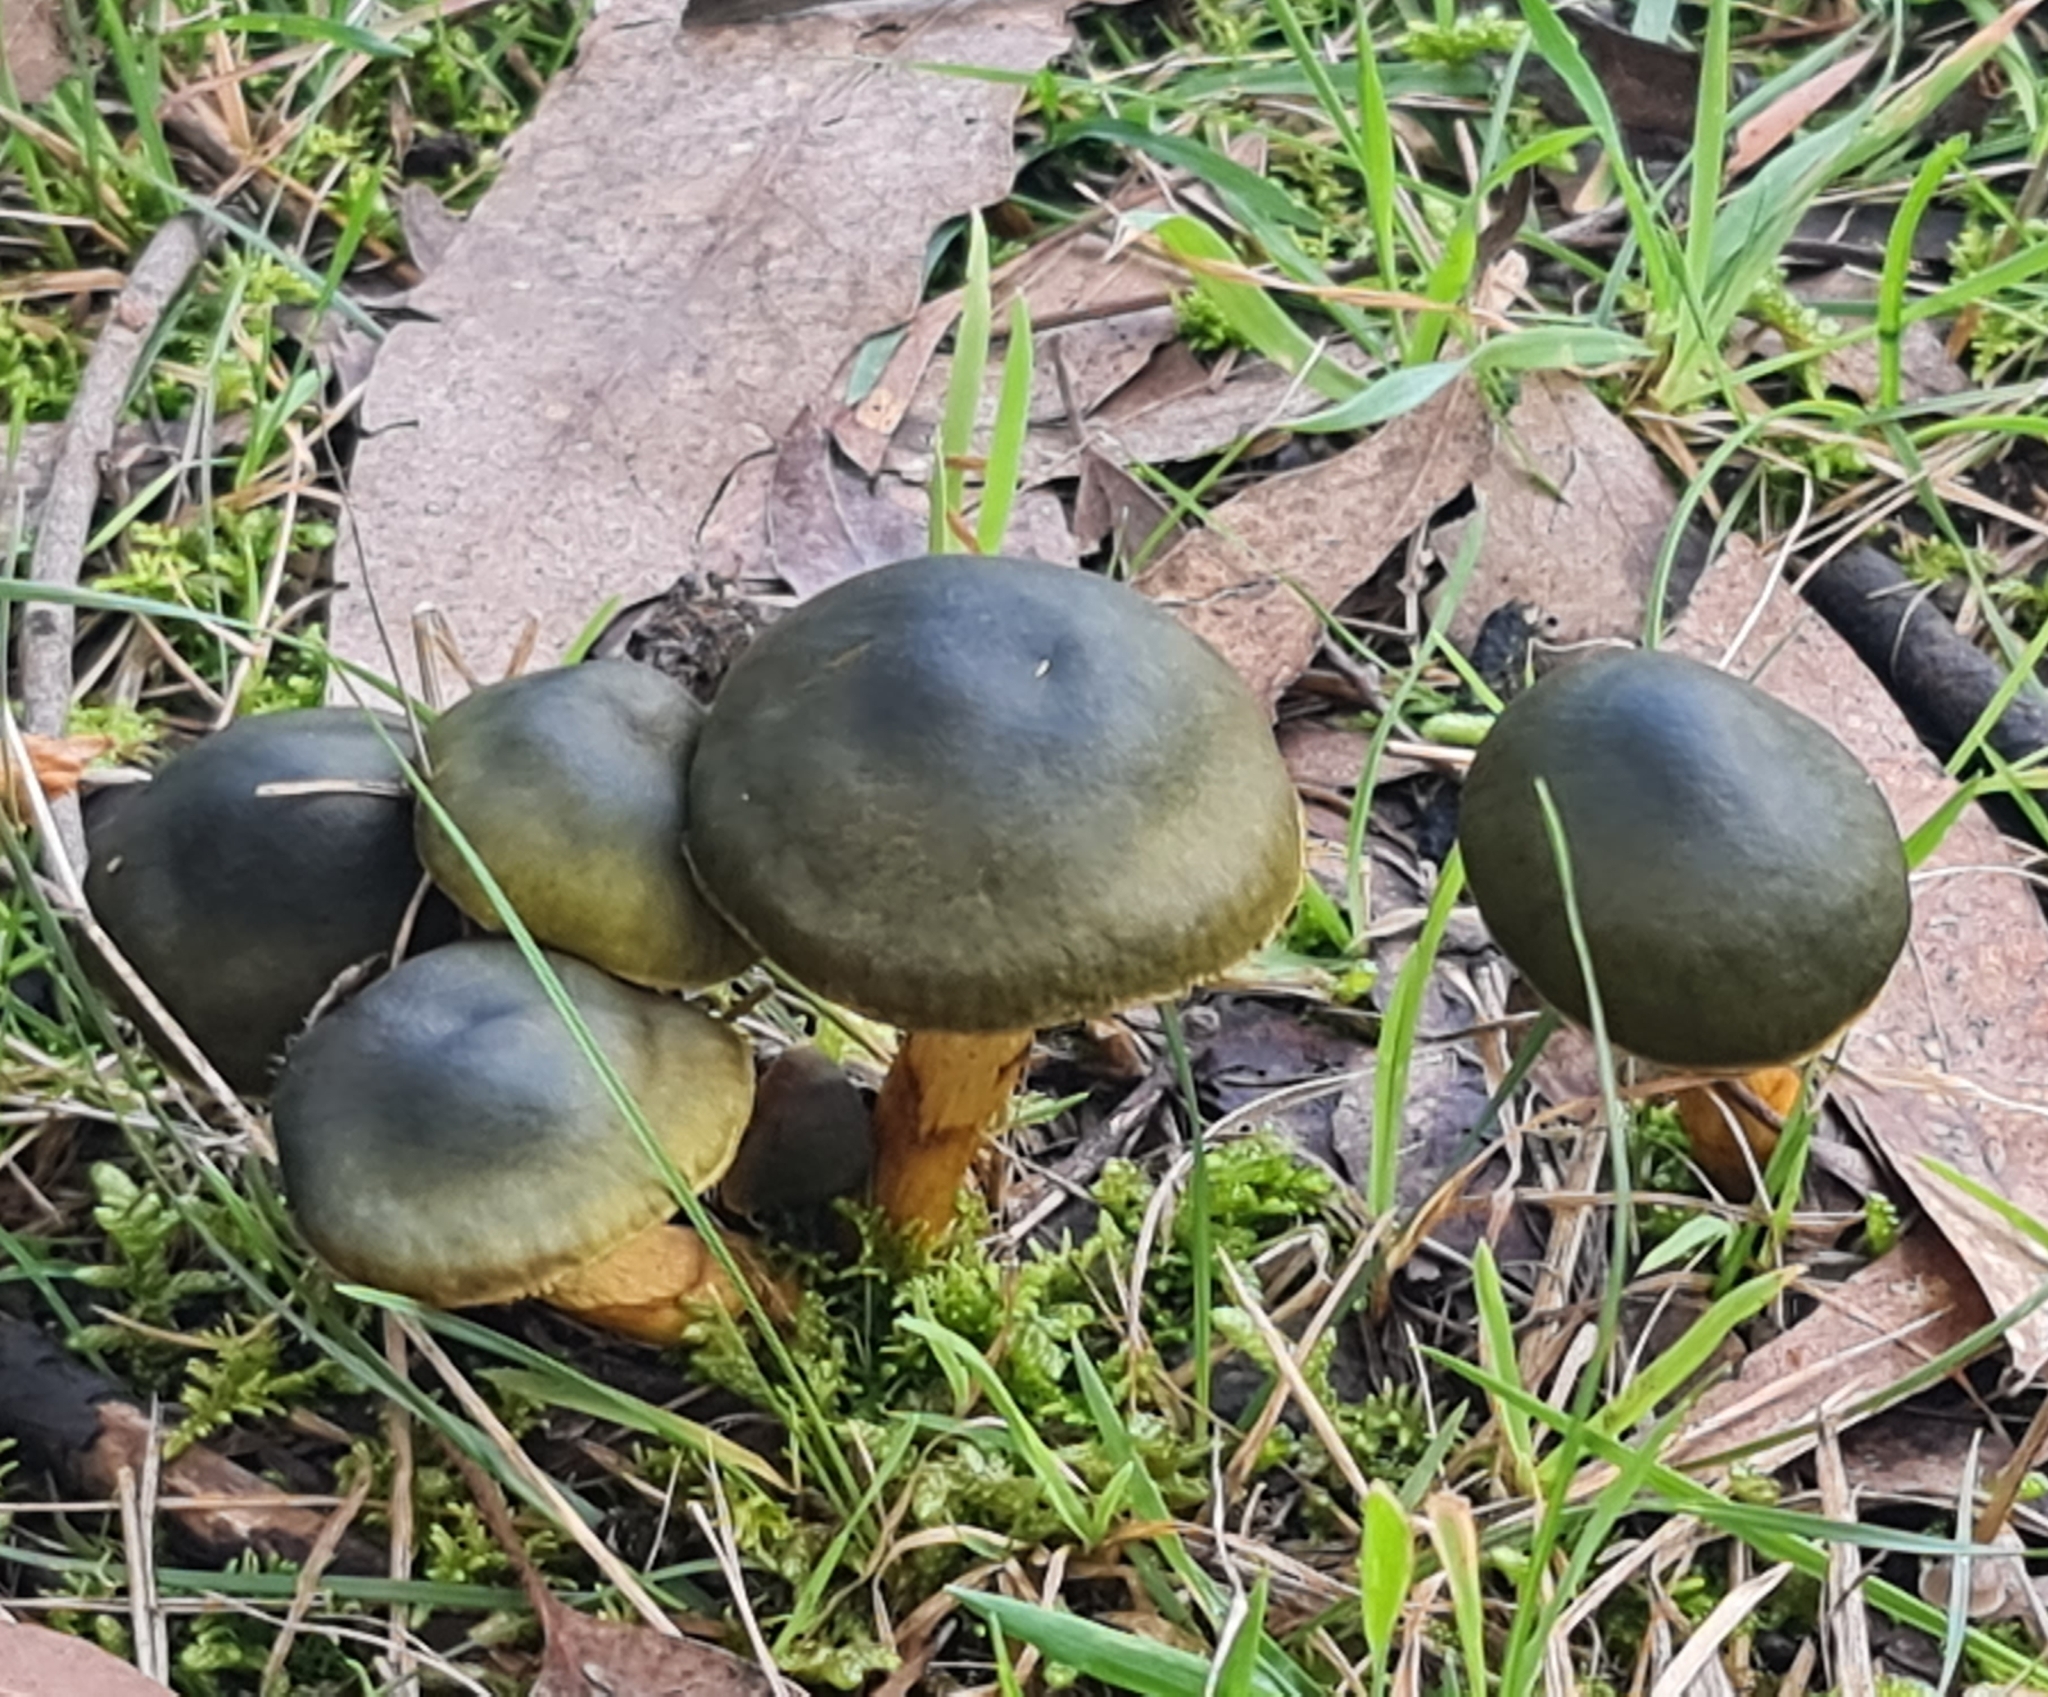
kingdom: Fungi
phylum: Basidiomycota
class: Agaricomycetes
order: Agaricales
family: Cortinariaceae
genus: Cortinarius
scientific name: Cortinarius austrovenetus
